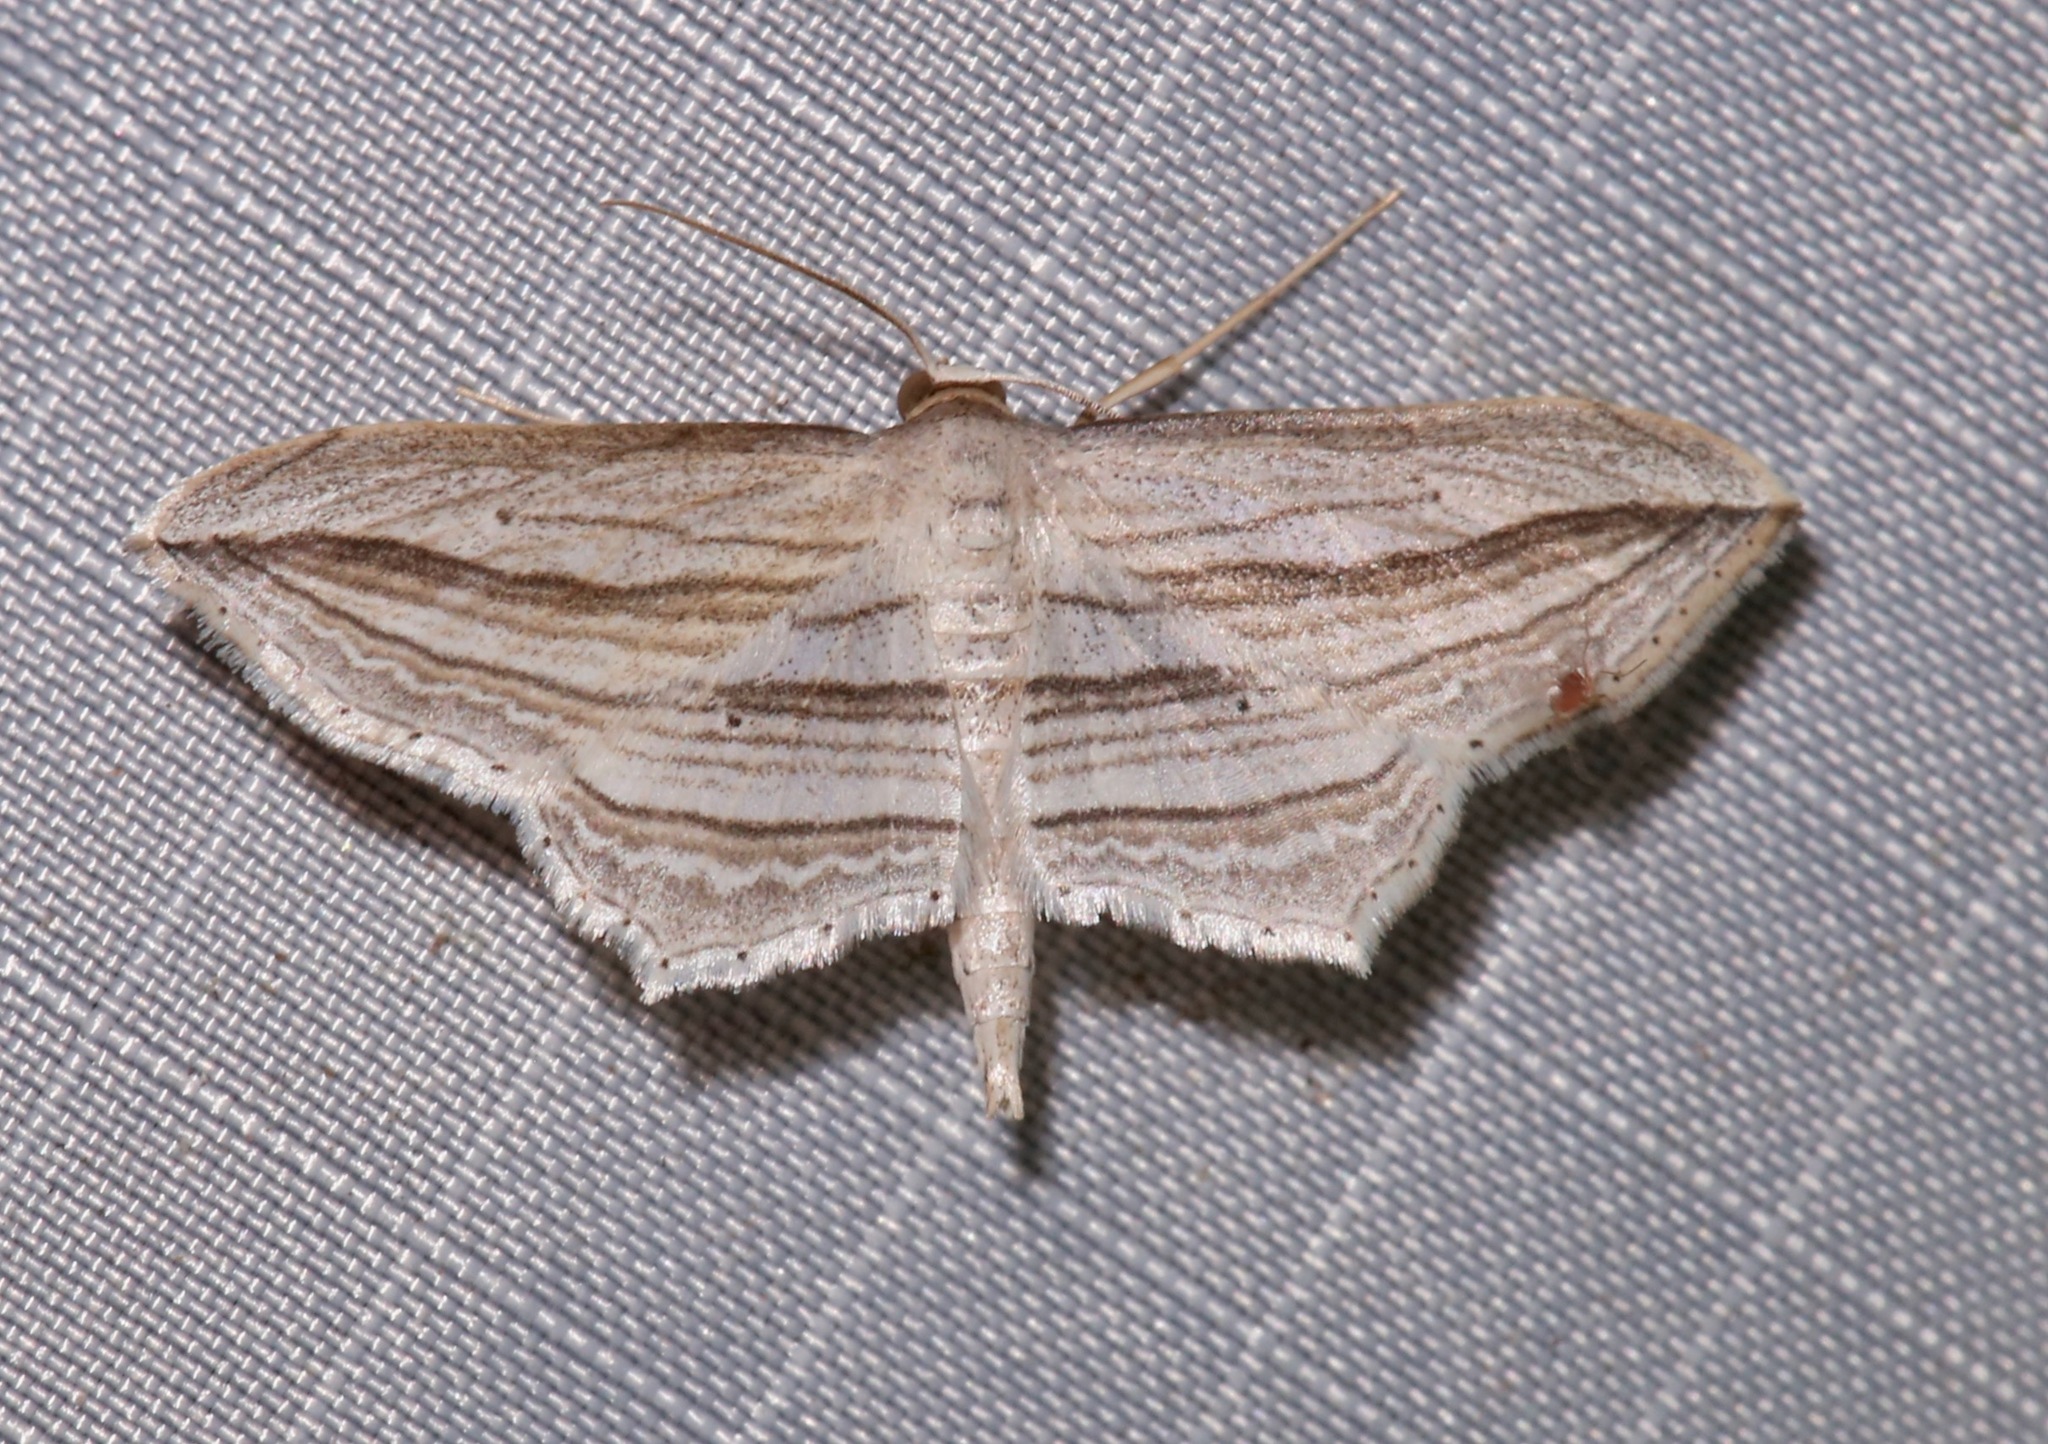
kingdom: Animalia
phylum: Arthropoda
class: Insecta
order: Lepidoptera
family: Geometridae
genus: Arcobara
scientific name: Arcobara multilineata
